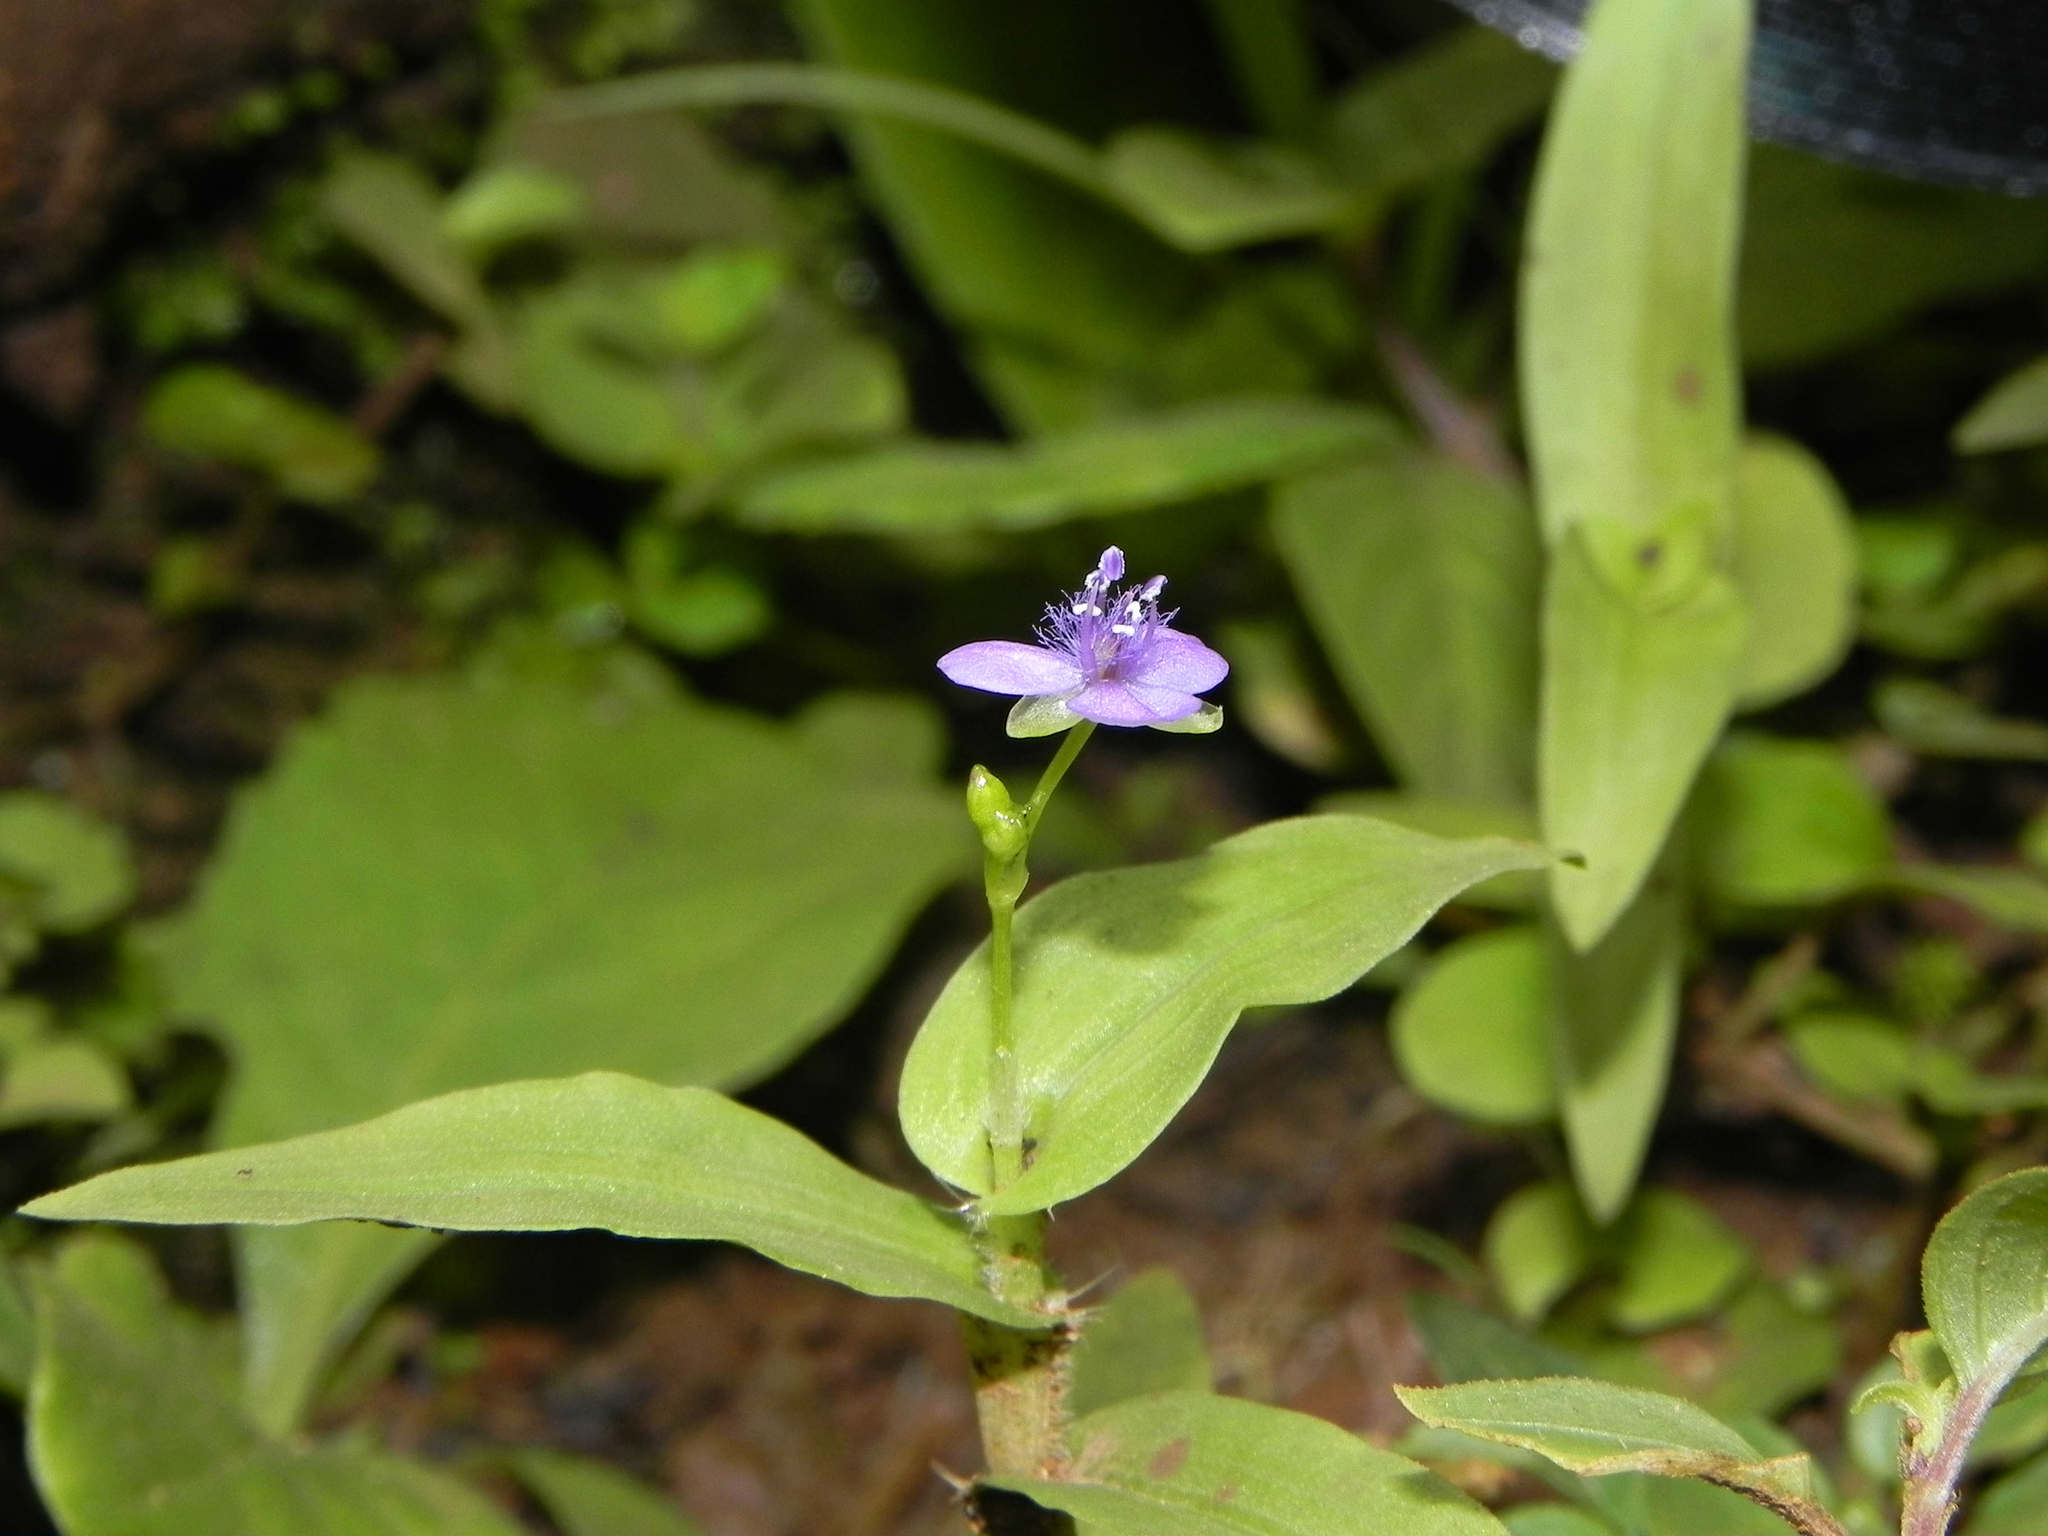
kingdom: Plantae
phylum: Tracheophyta
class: Liliopsida
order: Commelinales
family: Commelinaceae
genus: Murdannia
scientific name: Murdannia spirata
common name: Asiatic dewflower
